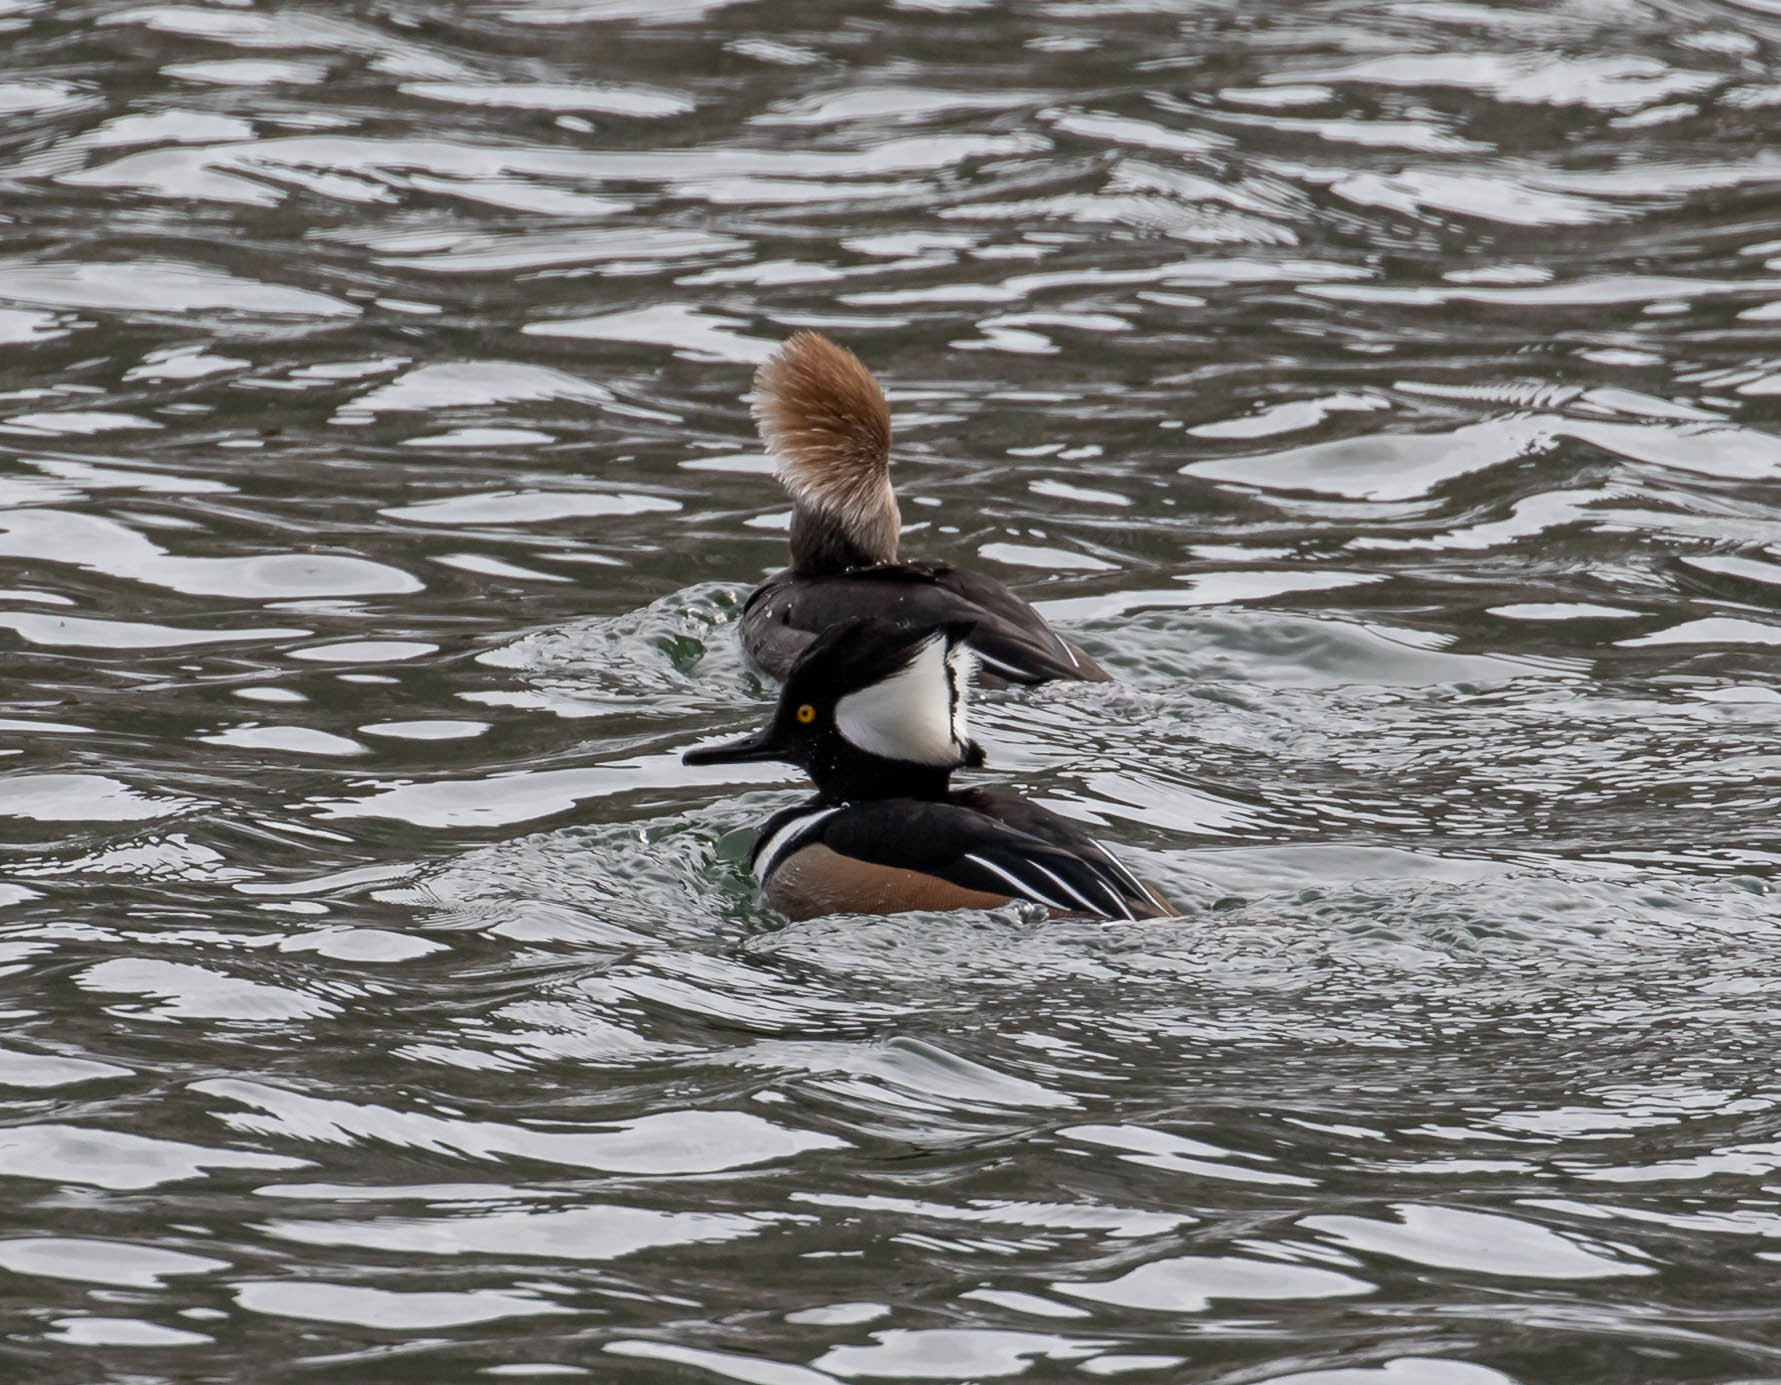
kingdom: Animalia
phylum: Chordata
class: Aves
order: Anseriformes
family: Anatidae
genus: Lophodytes
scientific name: Lophodytes cucullatus
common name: Hooded merganser
